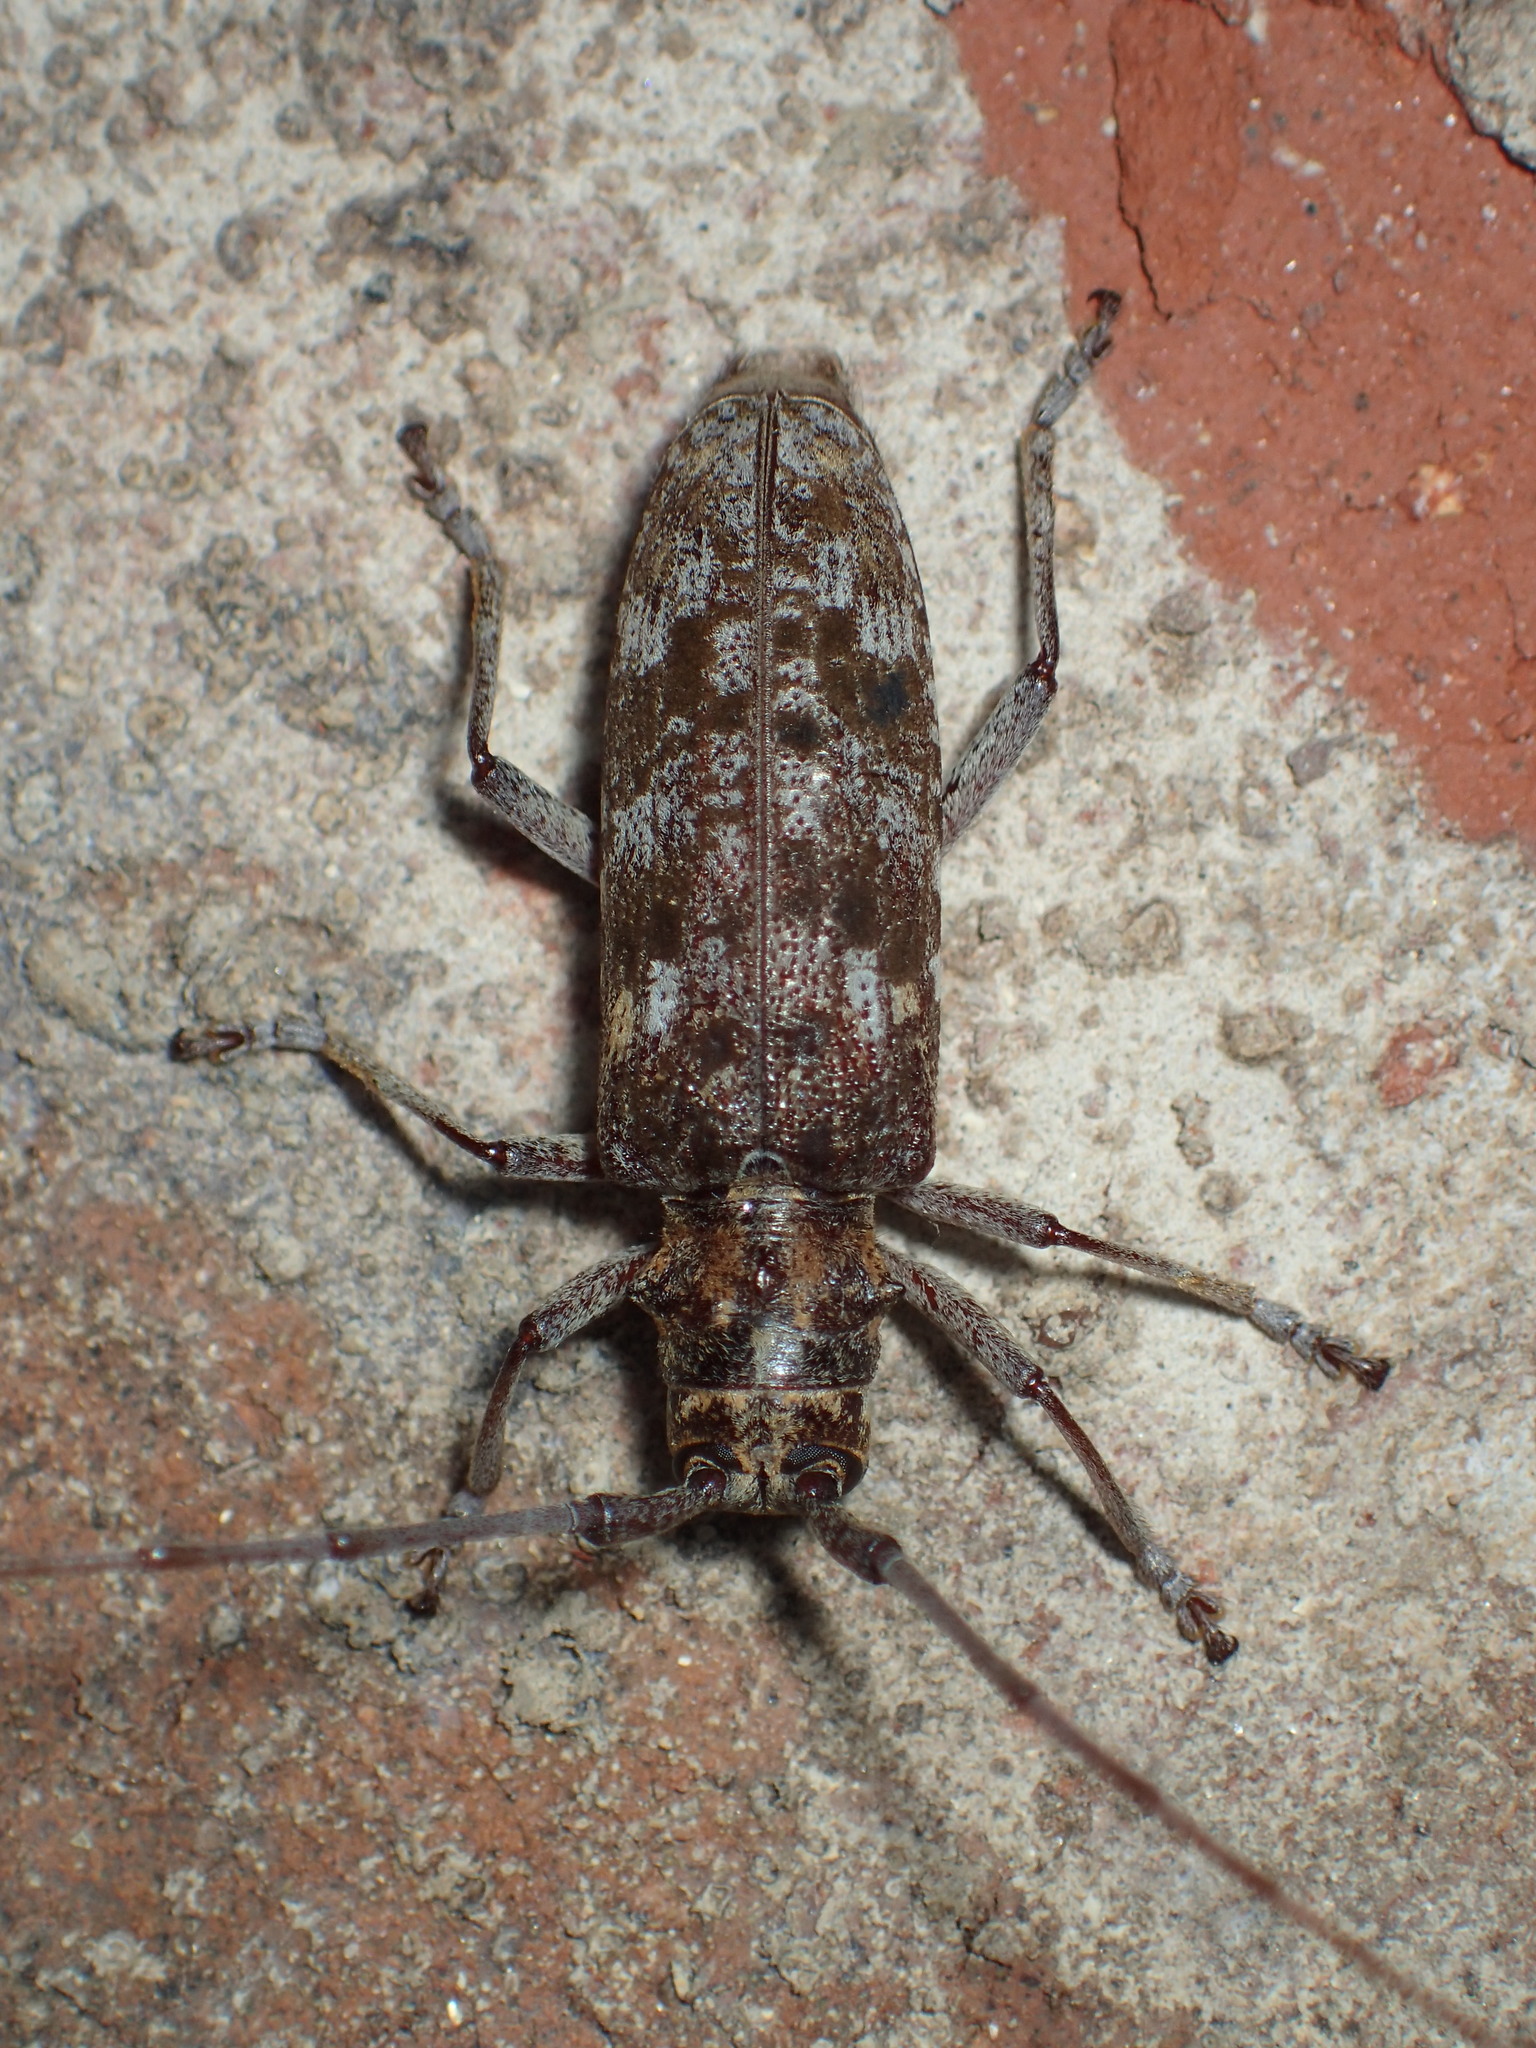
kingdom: Animalia
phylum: Arthropoda
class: Insecta
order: Coleoptera
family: Cerambycidae
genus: Monochamus
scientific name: Monochamus titillator
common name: Southern pine sawyer
